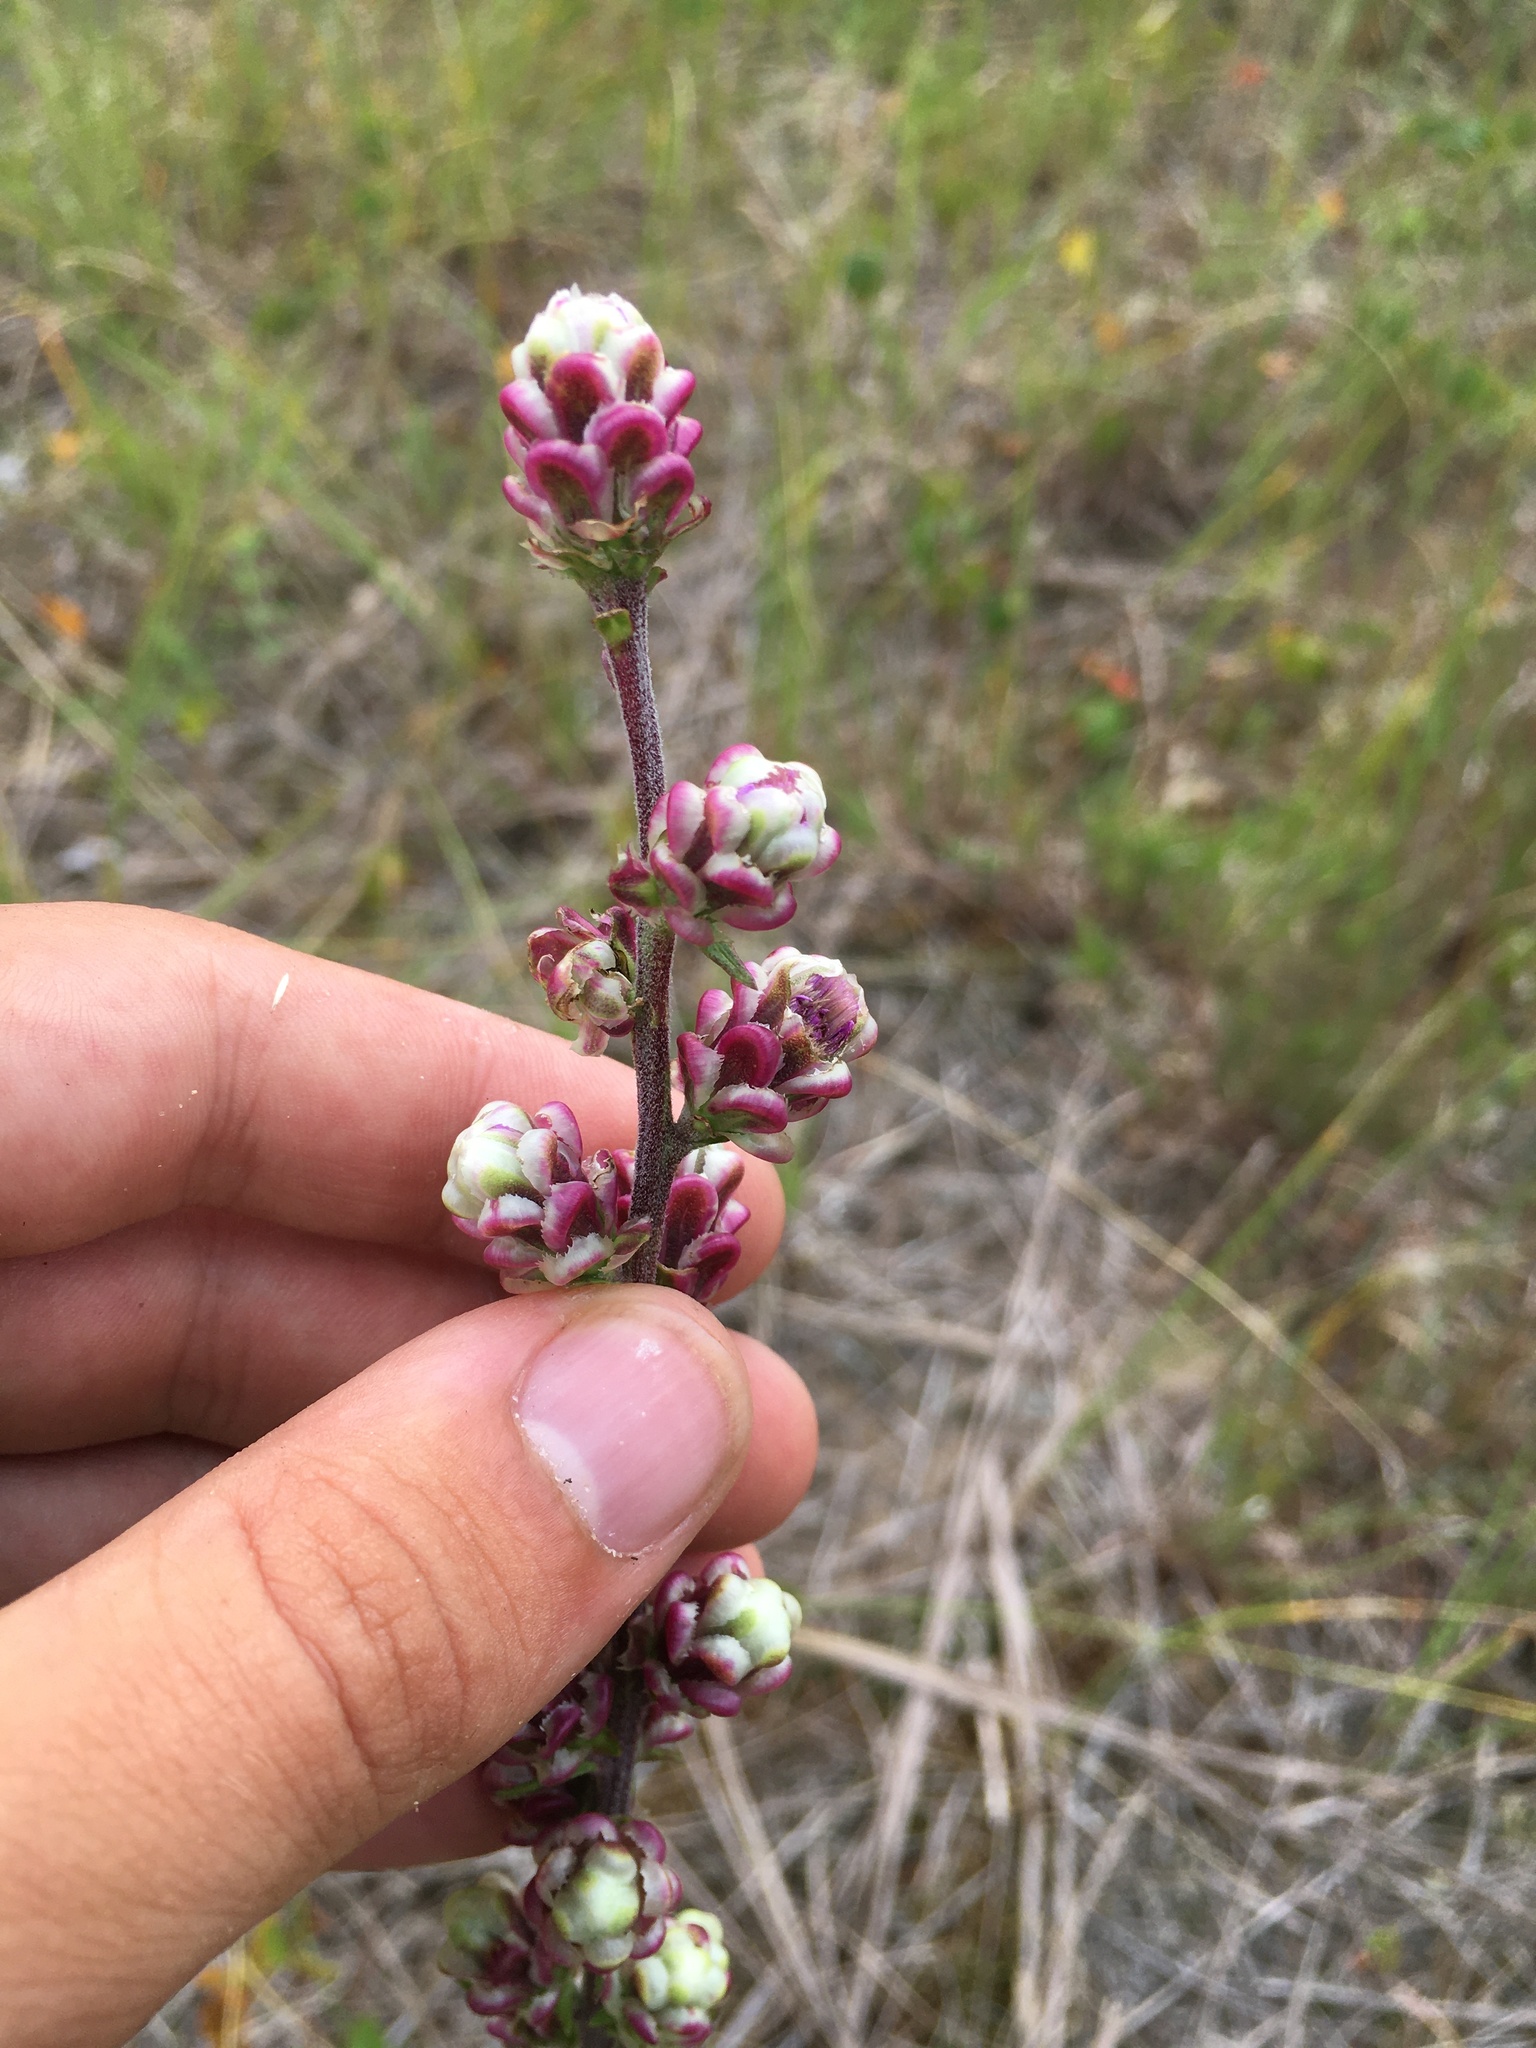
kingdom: Plantae
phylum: Tracheophyta
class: Magnoliopsida
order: Asterales
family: Asteraceae
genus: Liatris
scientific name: Liatris aspera
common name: Lacerate blazing-star
